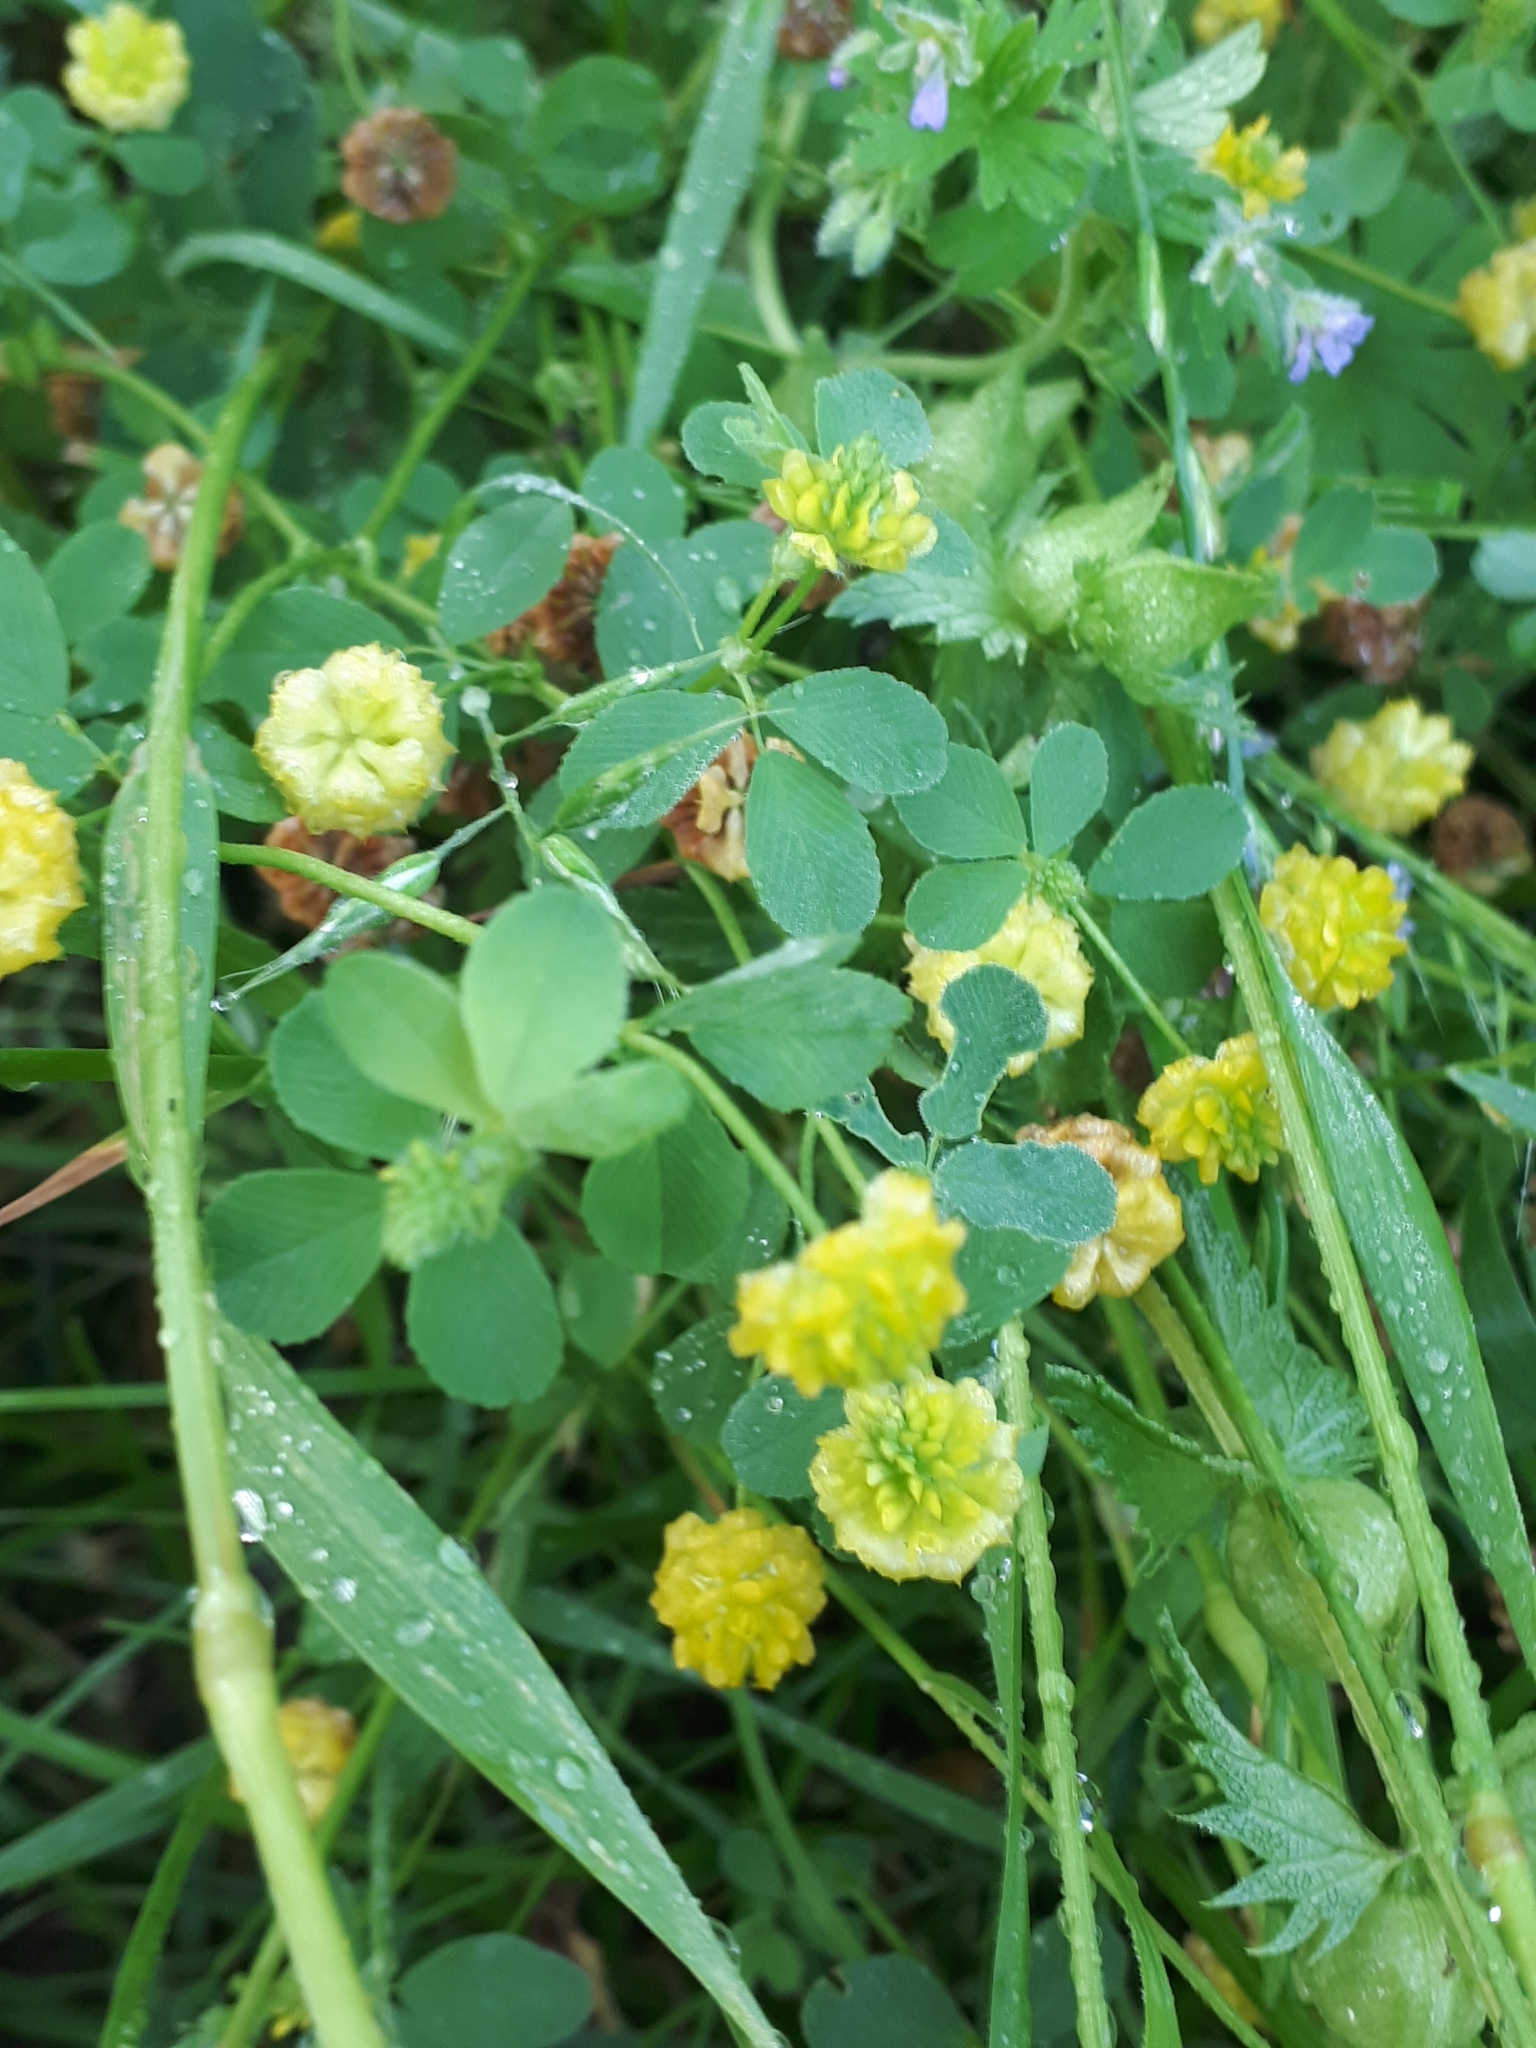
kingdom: Plantae
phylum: Tracheophyta
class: Magnoliopsida
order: Fabales
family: Fabaceae
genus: Trifolium
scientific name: Trifolium campestre
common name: Field clover
